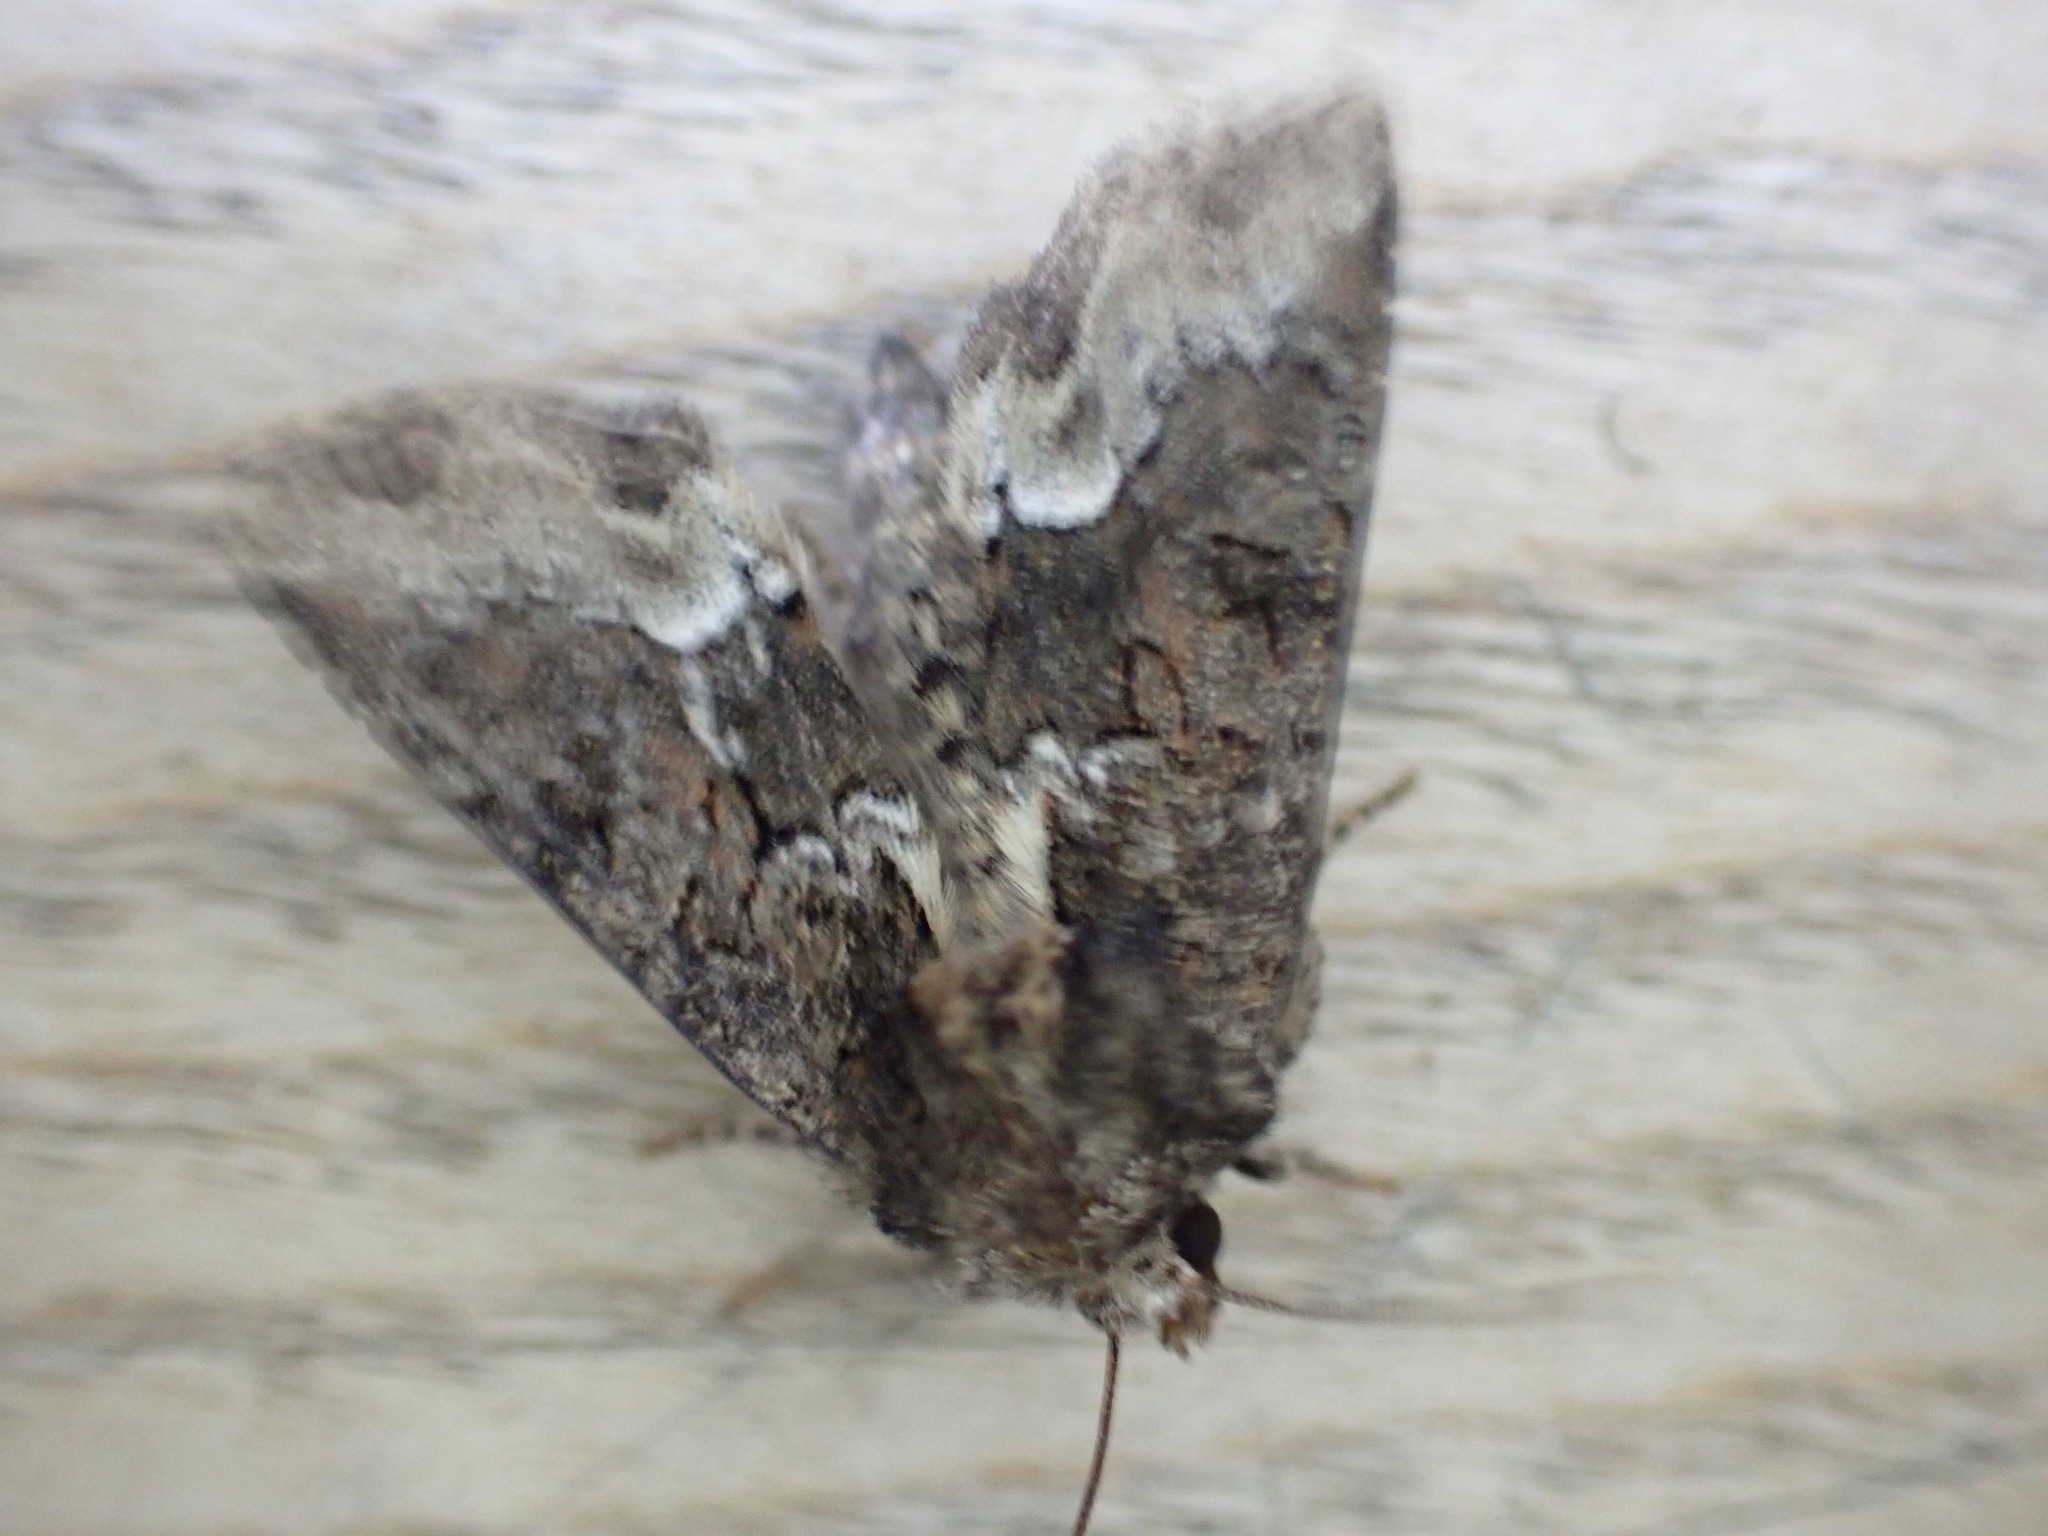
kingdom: Animalia
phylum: Arthropoda
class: Insecta
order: Lepidoptera
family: Noctuidae
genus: Oligia
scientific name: Oligia strigilis
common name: Marbled minor
